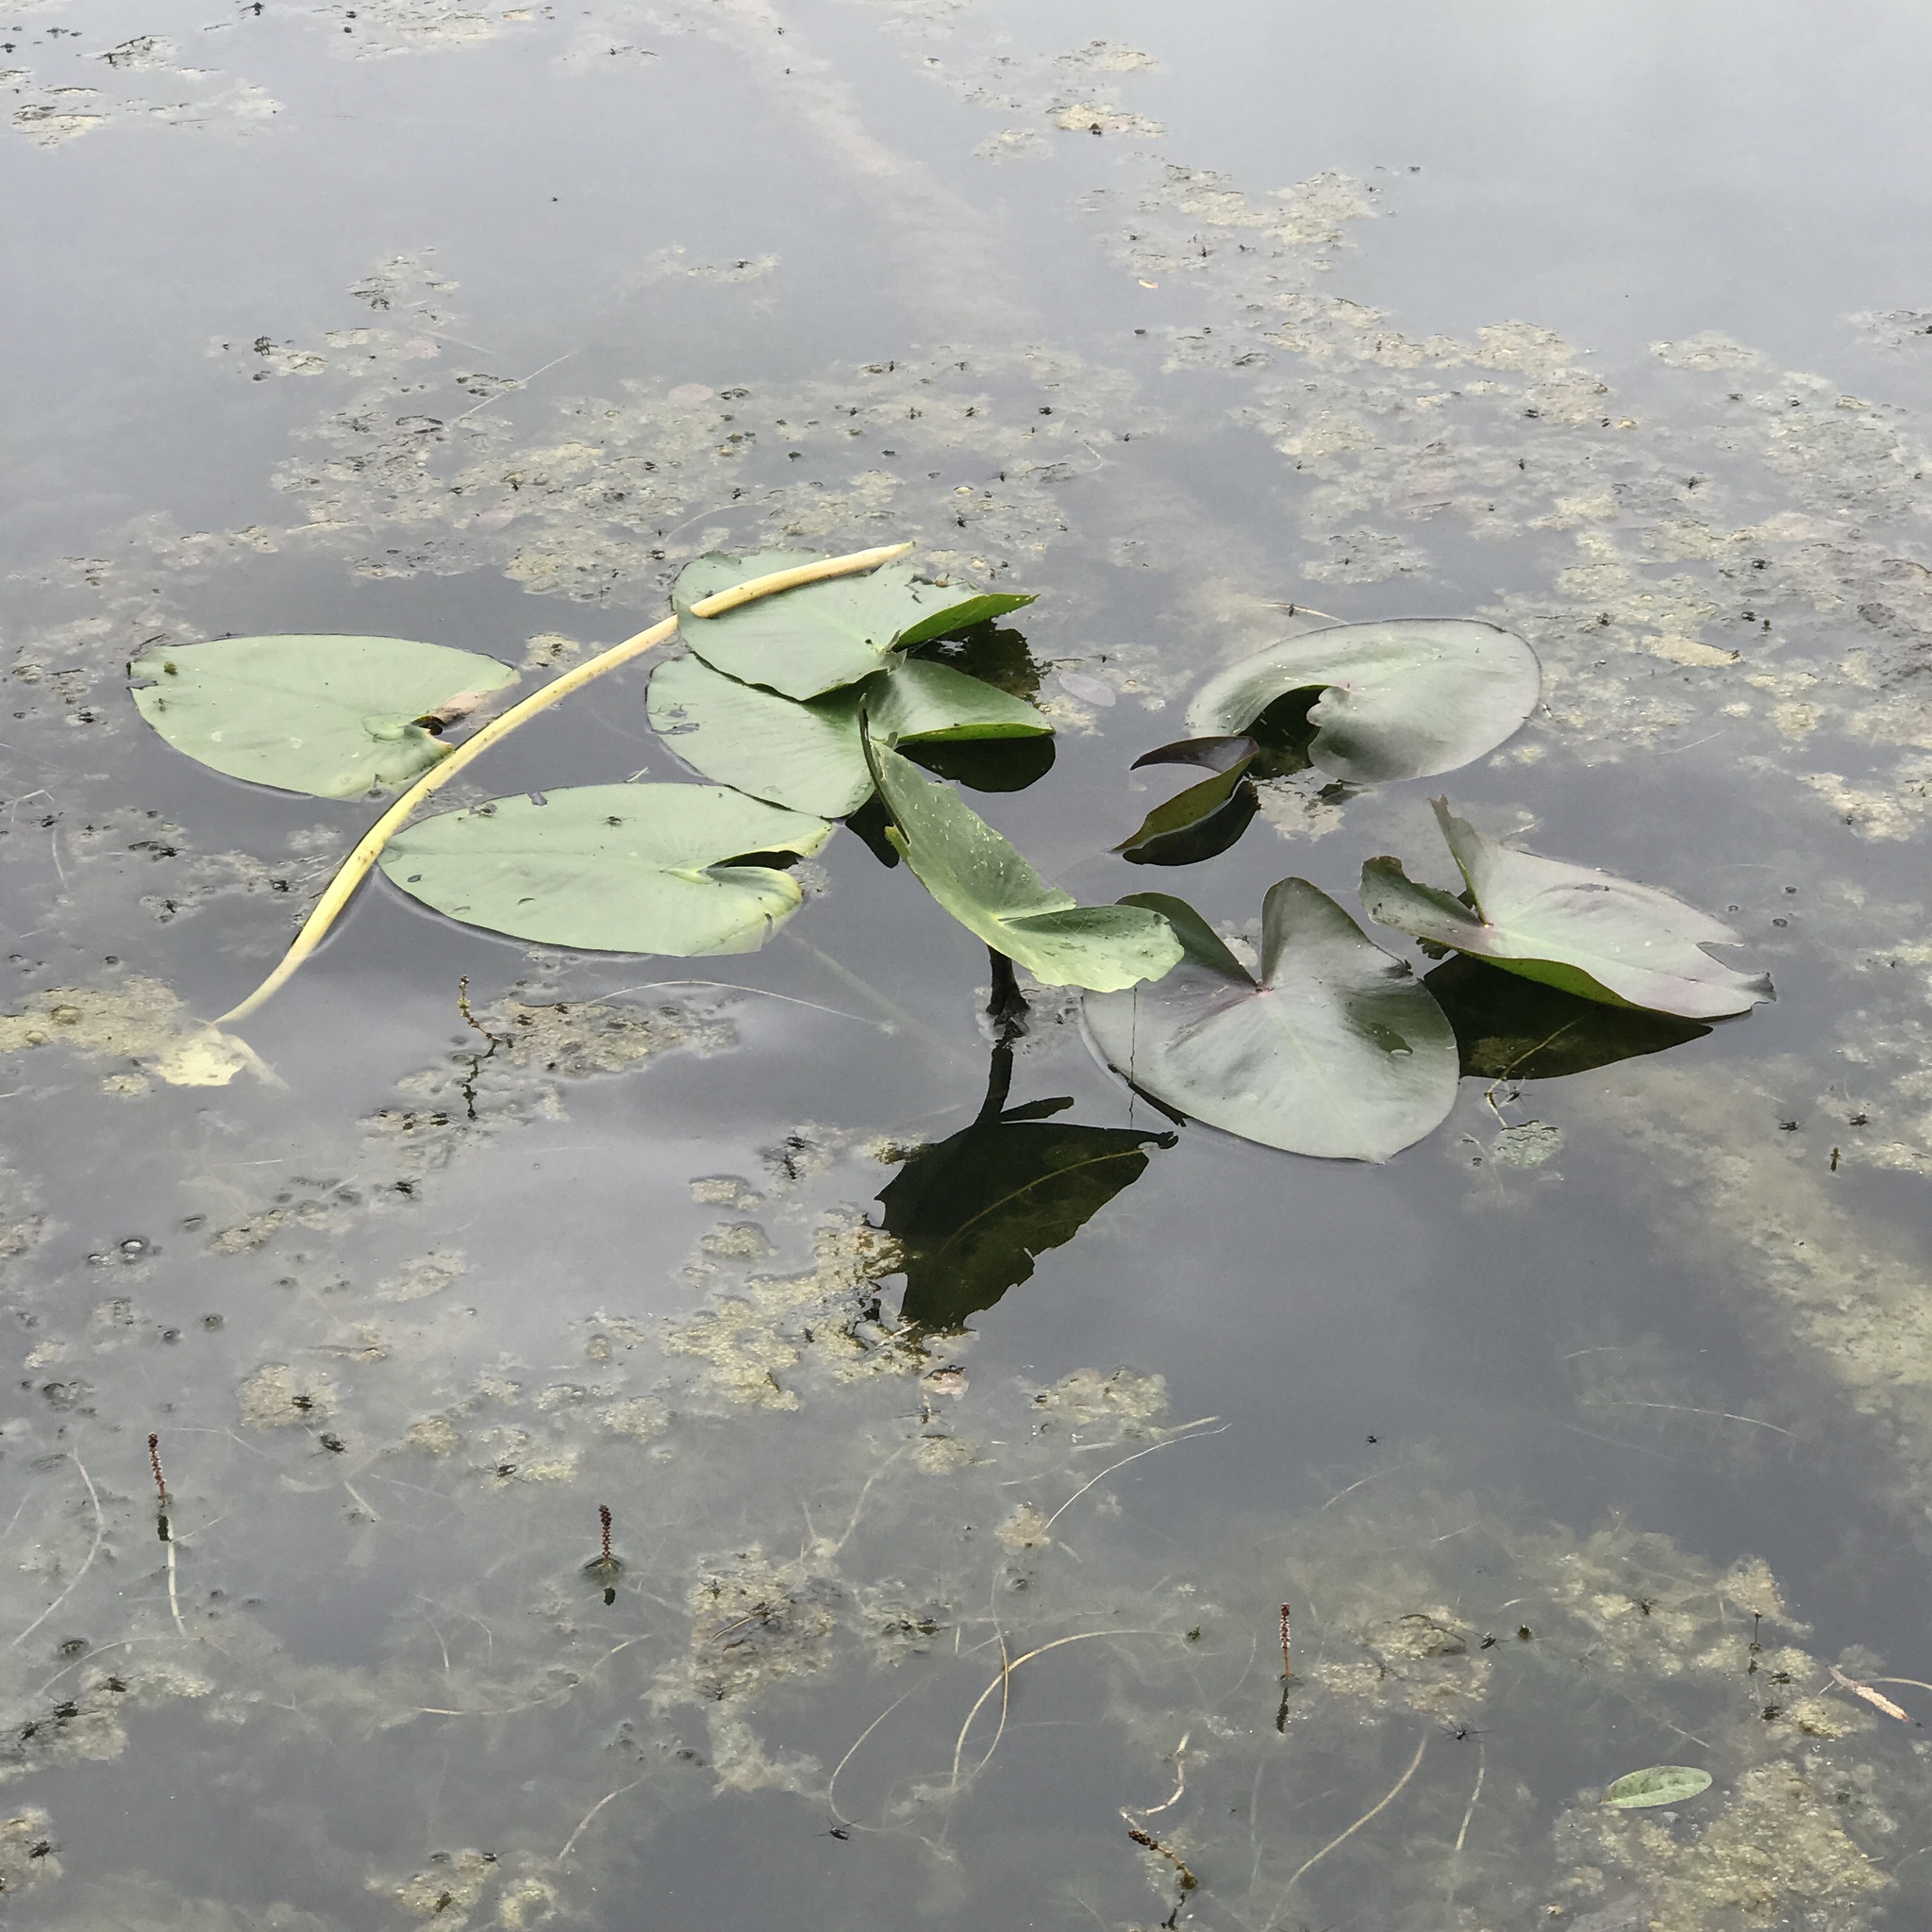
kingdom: Plantae
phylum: Tracheophyta
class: Magnoliopsida
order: Nymphaeales
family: Nymphaeaceae
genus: Nuphar
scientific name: Nuphar advena
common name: Spatter-dock
